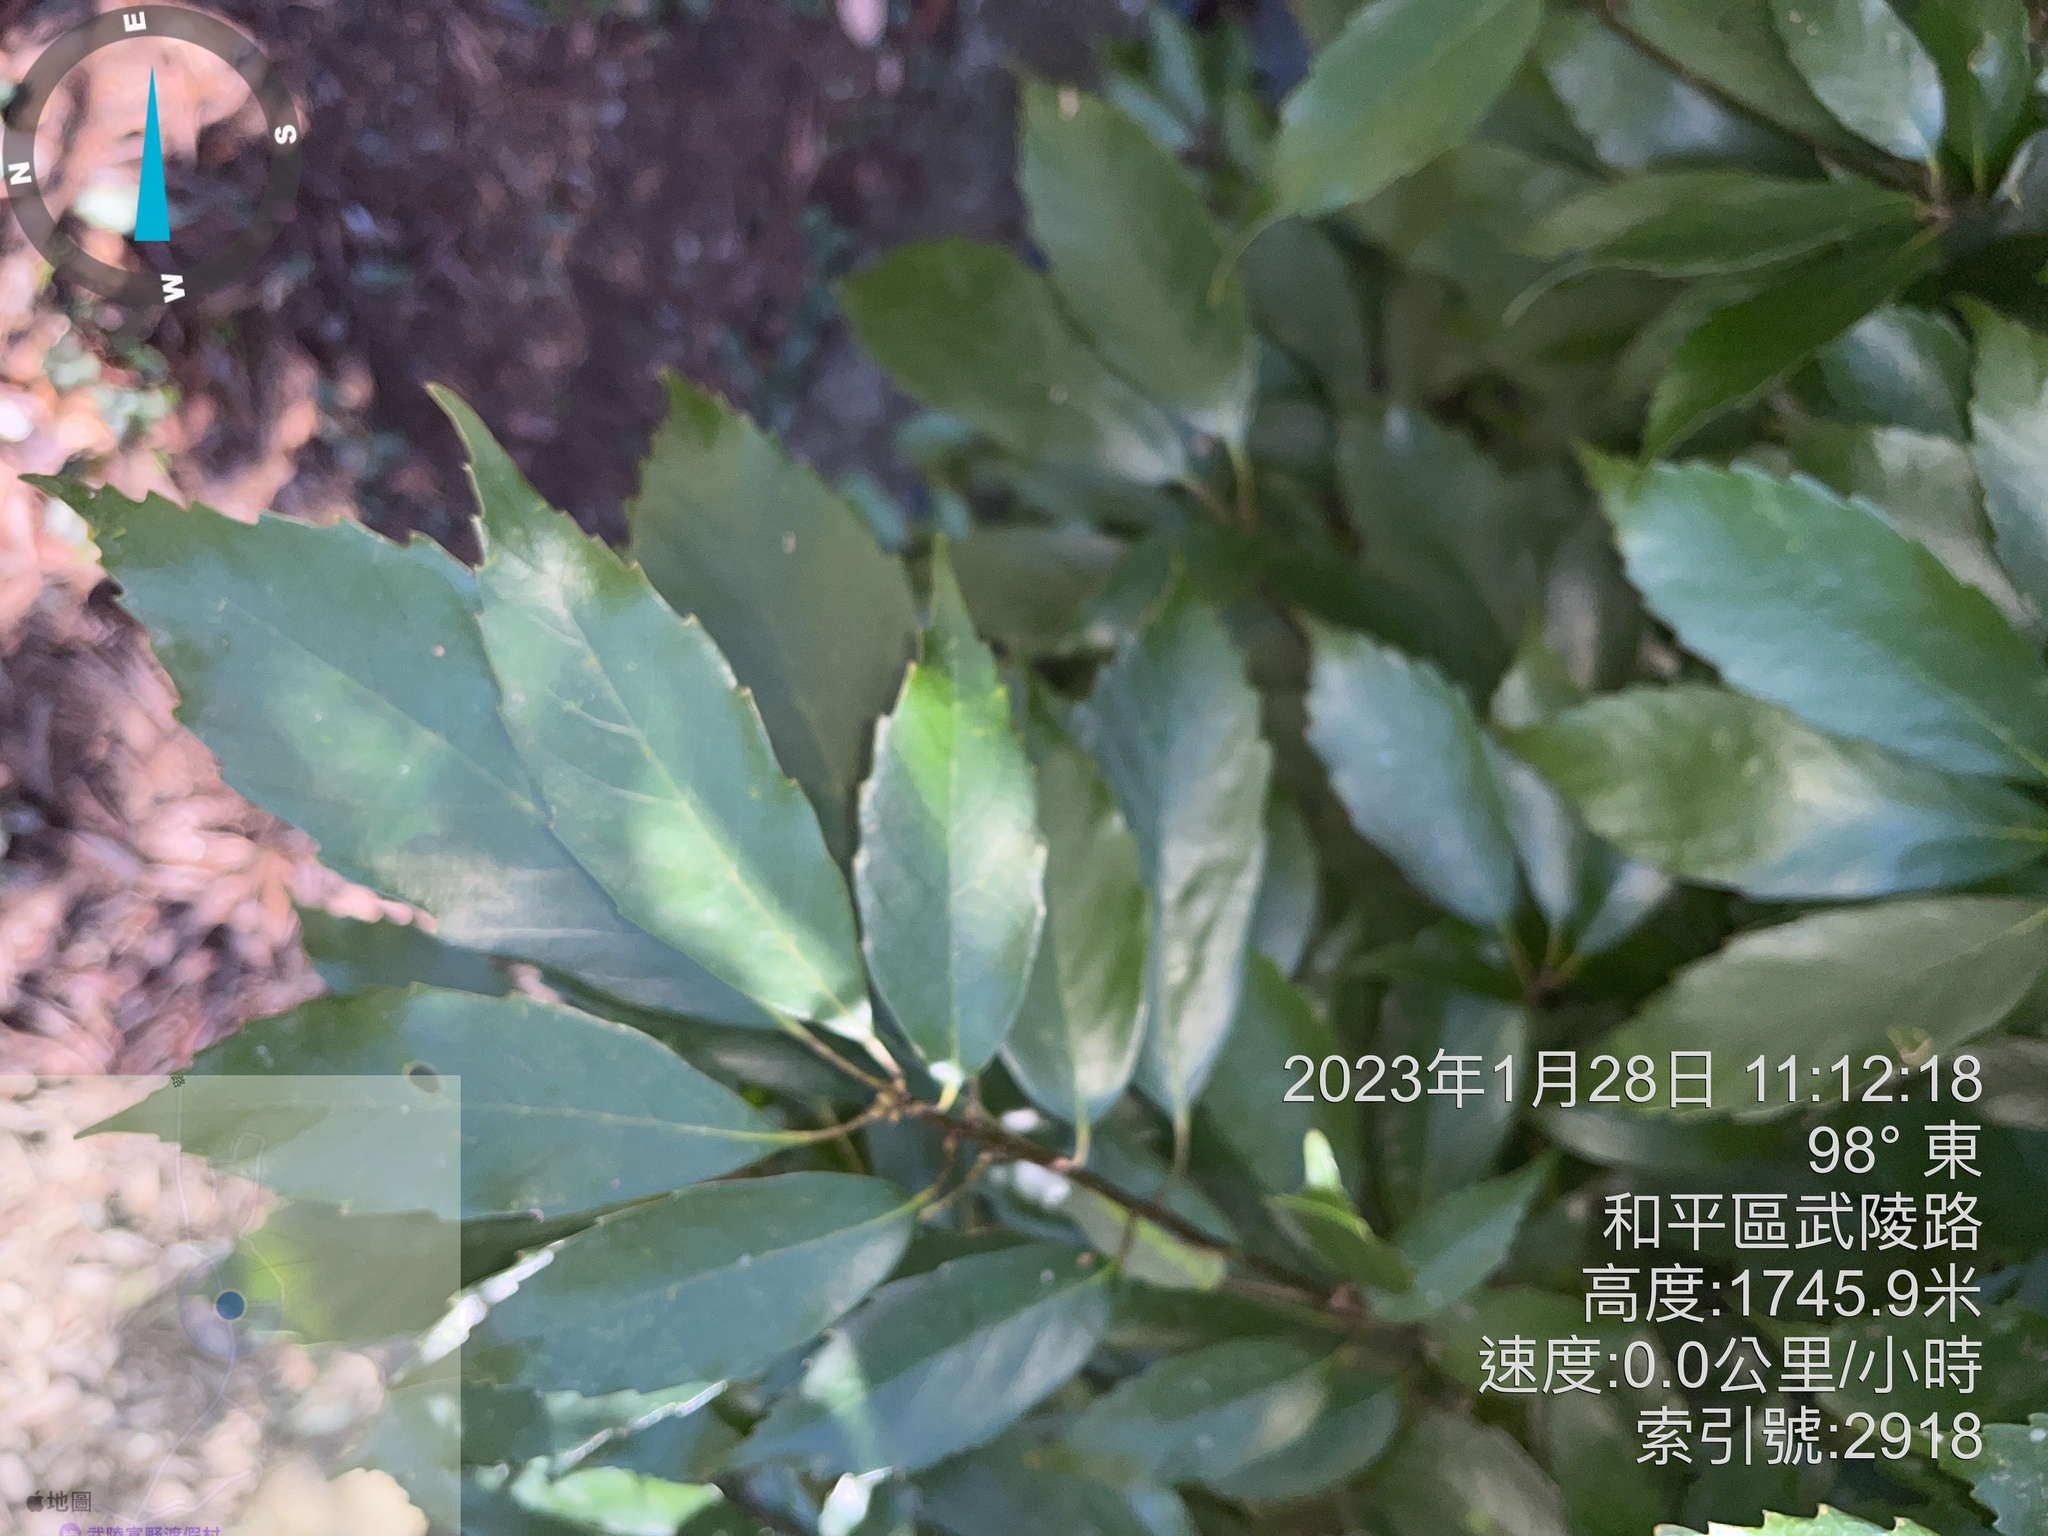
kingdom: Plantae
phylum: Tracheophyta
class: Magnoliopsida
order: Fagales
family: Fagaceae
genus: Quercus
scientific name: Quercus glauca
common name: Ring-cup oak
